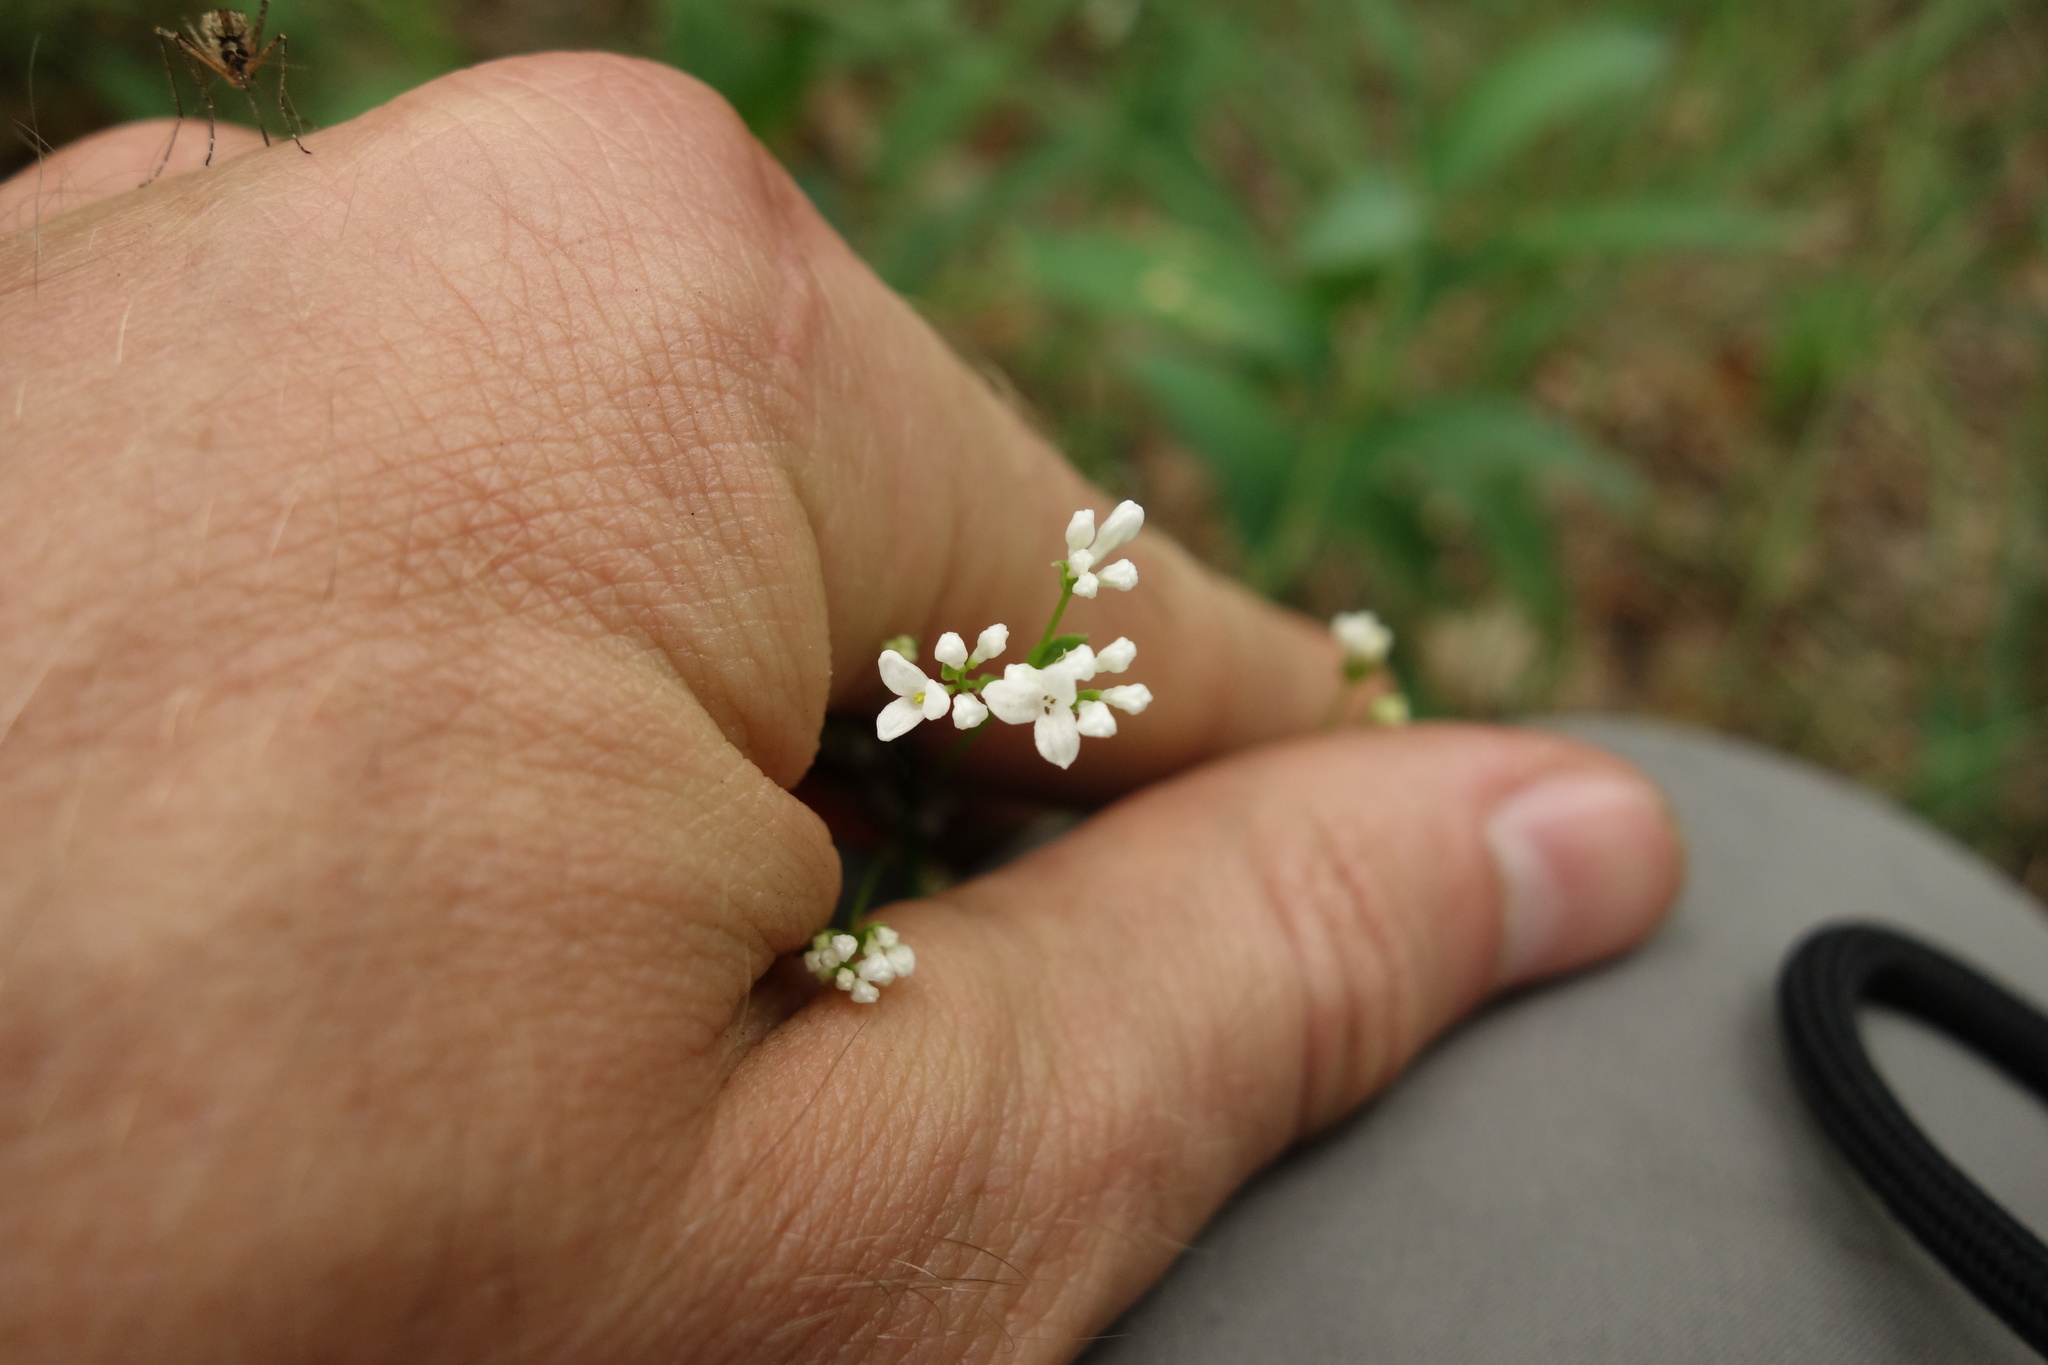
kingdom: Plantae
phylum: Tracheophyta
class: Magnoliopsida
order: Gentianales
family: Rubiaceae
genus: Asperula
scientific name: Asperula tinctoria
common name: Dyer's woodruff
